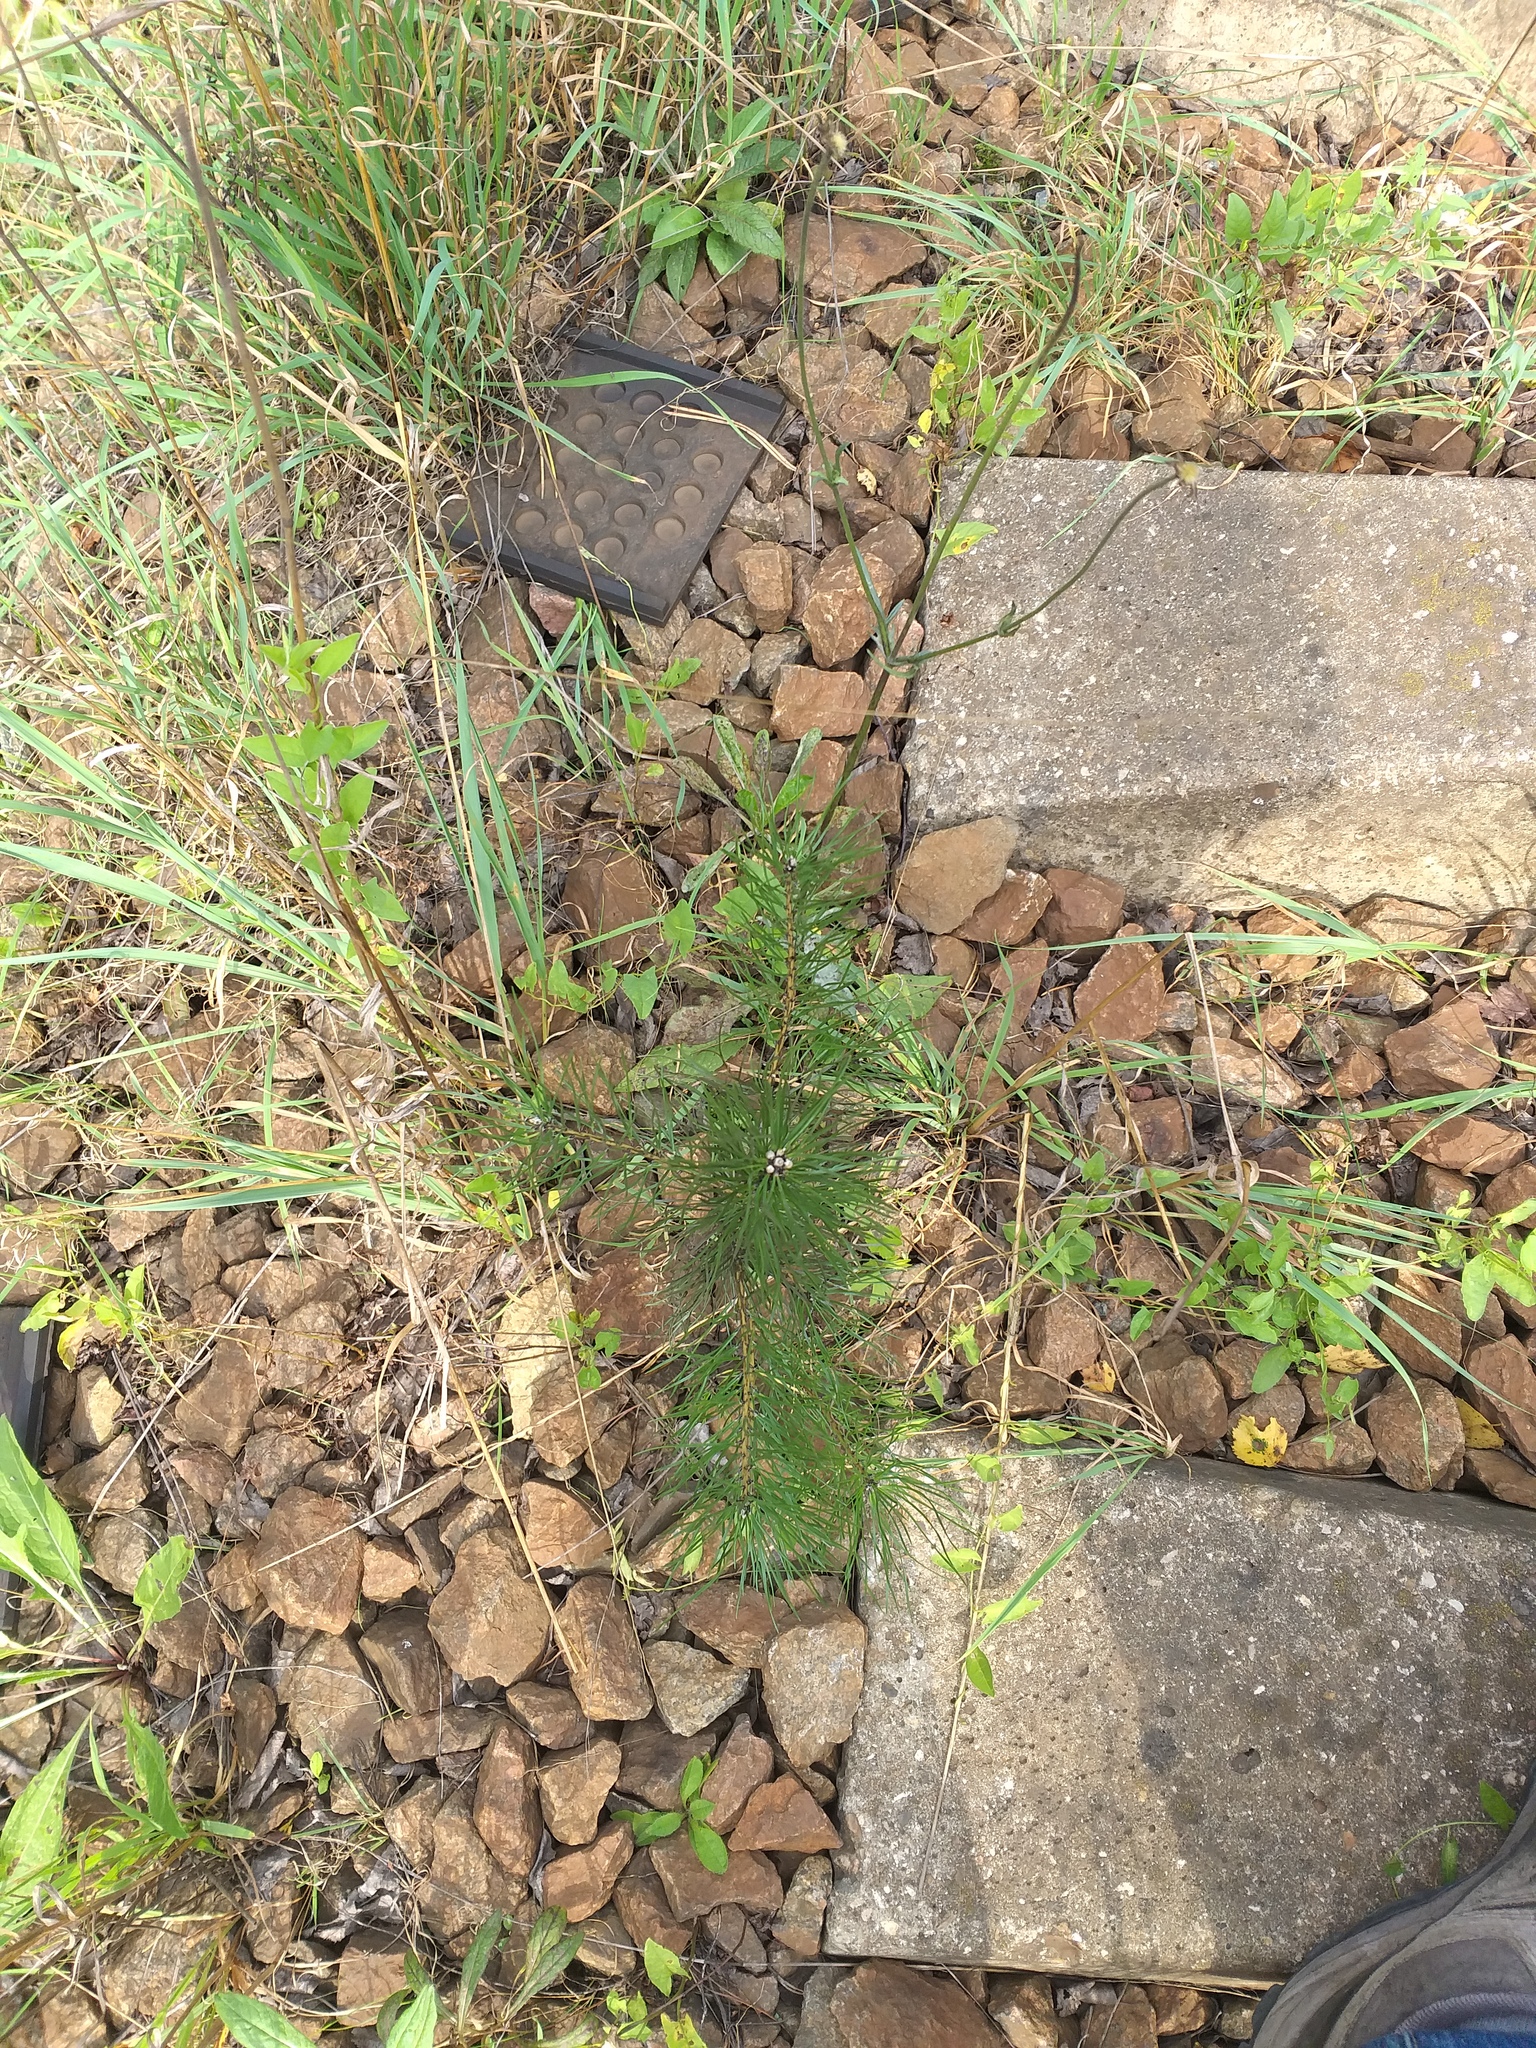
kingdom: Plantae
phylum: Tracheophyta
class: Pinopsida
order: Pinales
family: Pinaceae
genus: Pinus
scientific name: Pinus sylvestris
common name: Scots pine
